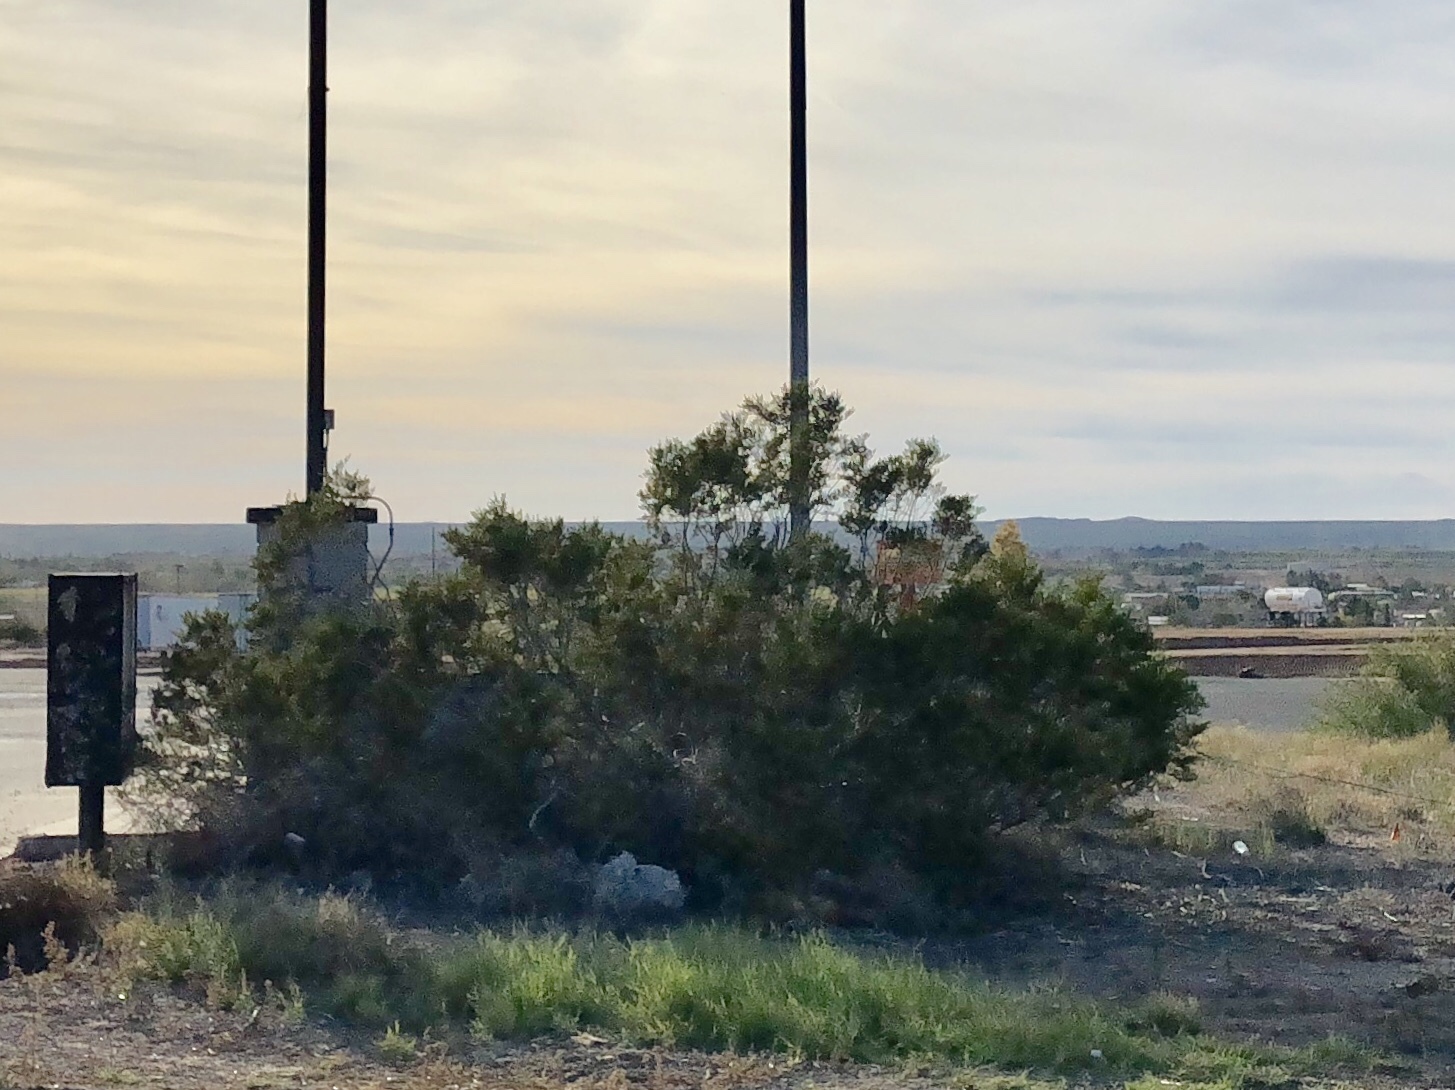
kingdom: Plantae
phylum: Tracheophyta
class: Magnoliopsida
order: Zygophyllales
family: Zygophyllaceae
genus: Larrea
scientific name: Larrea tridentata
